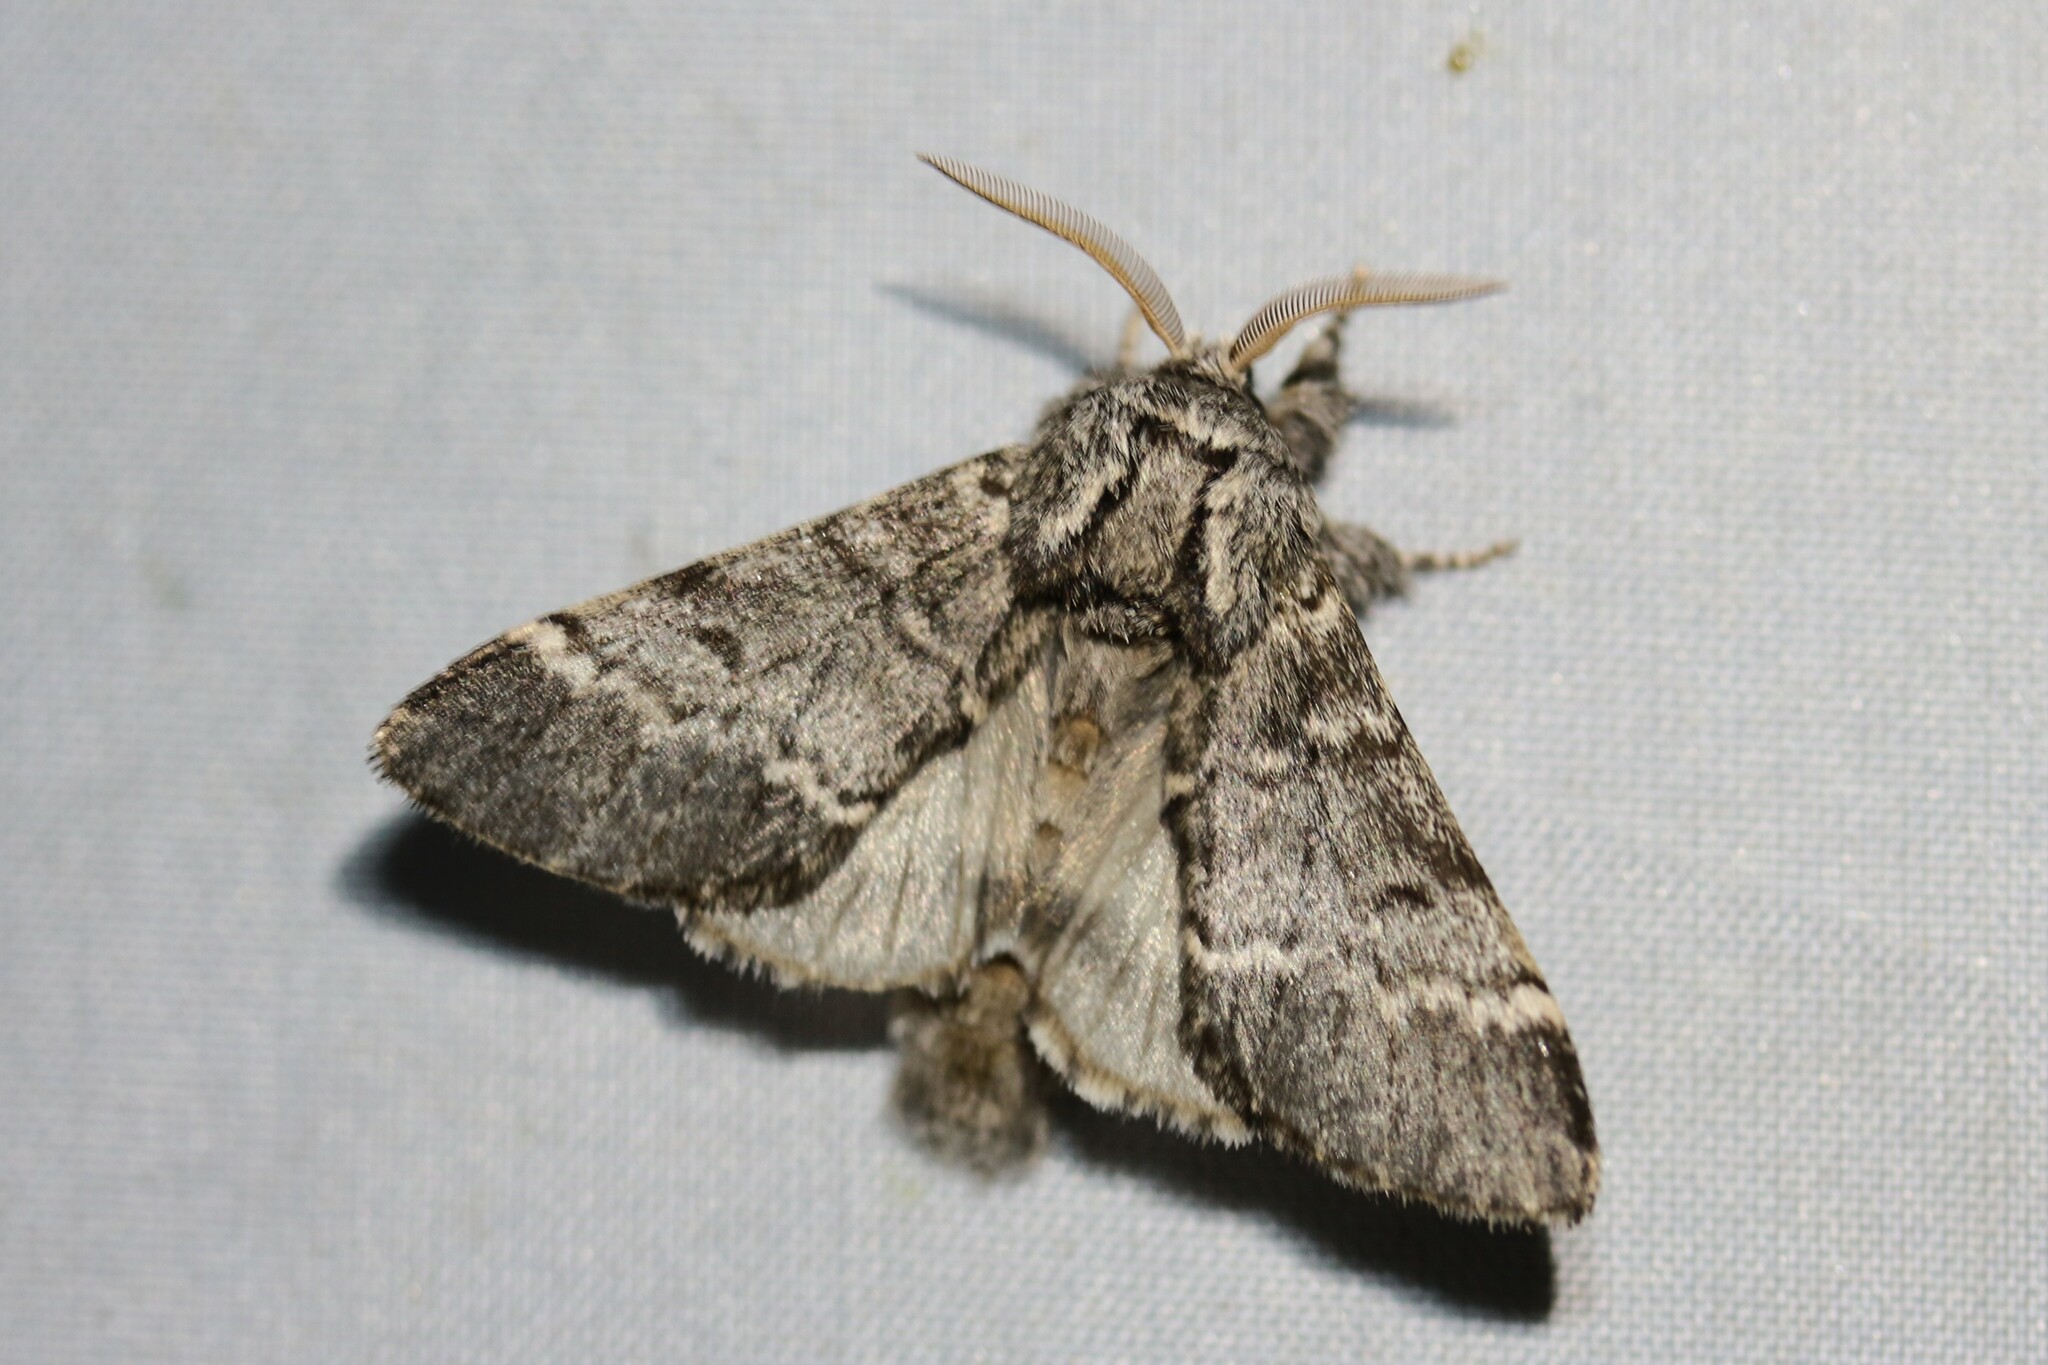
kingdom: Animalia
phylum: Arthropoda
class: Insecta
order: Lepidoptera
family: Notodontidae
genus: Drymonia
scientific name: Drymonia ruficornis
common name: Lunar marbled brown
